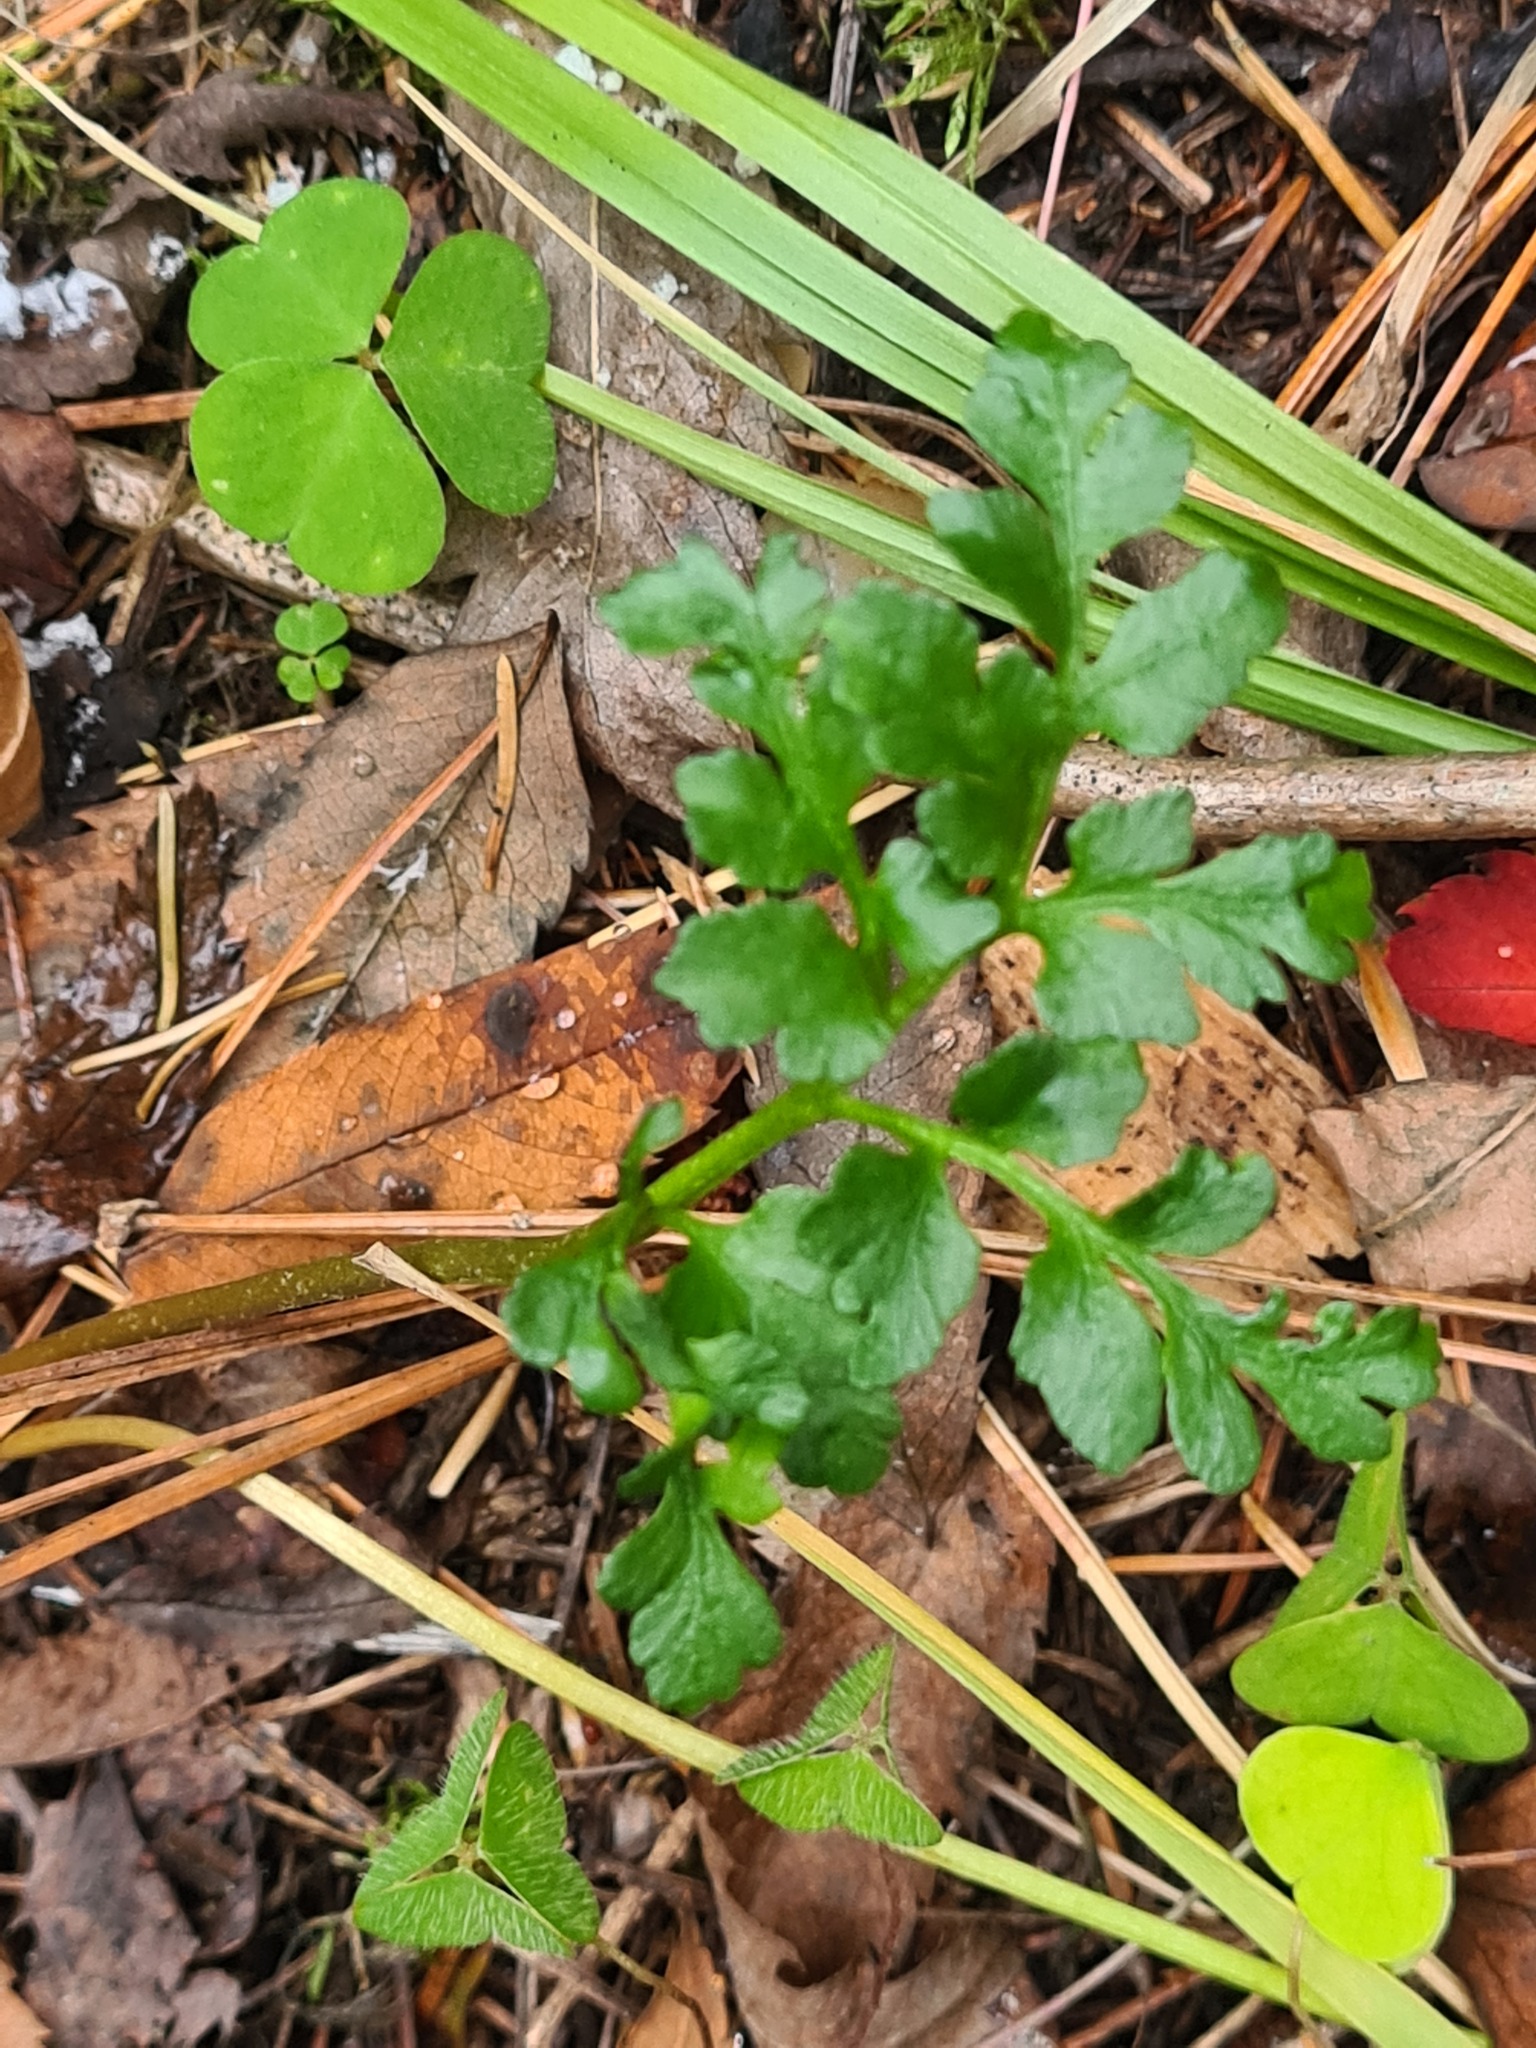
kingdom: Plantae
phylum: Tracheophyta
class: Polypodiopsida
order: Ophioglossales
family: Ophioglossaceae
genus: Sceptridium
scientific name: Sceptridium multifidum
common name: Leathery grape fern
